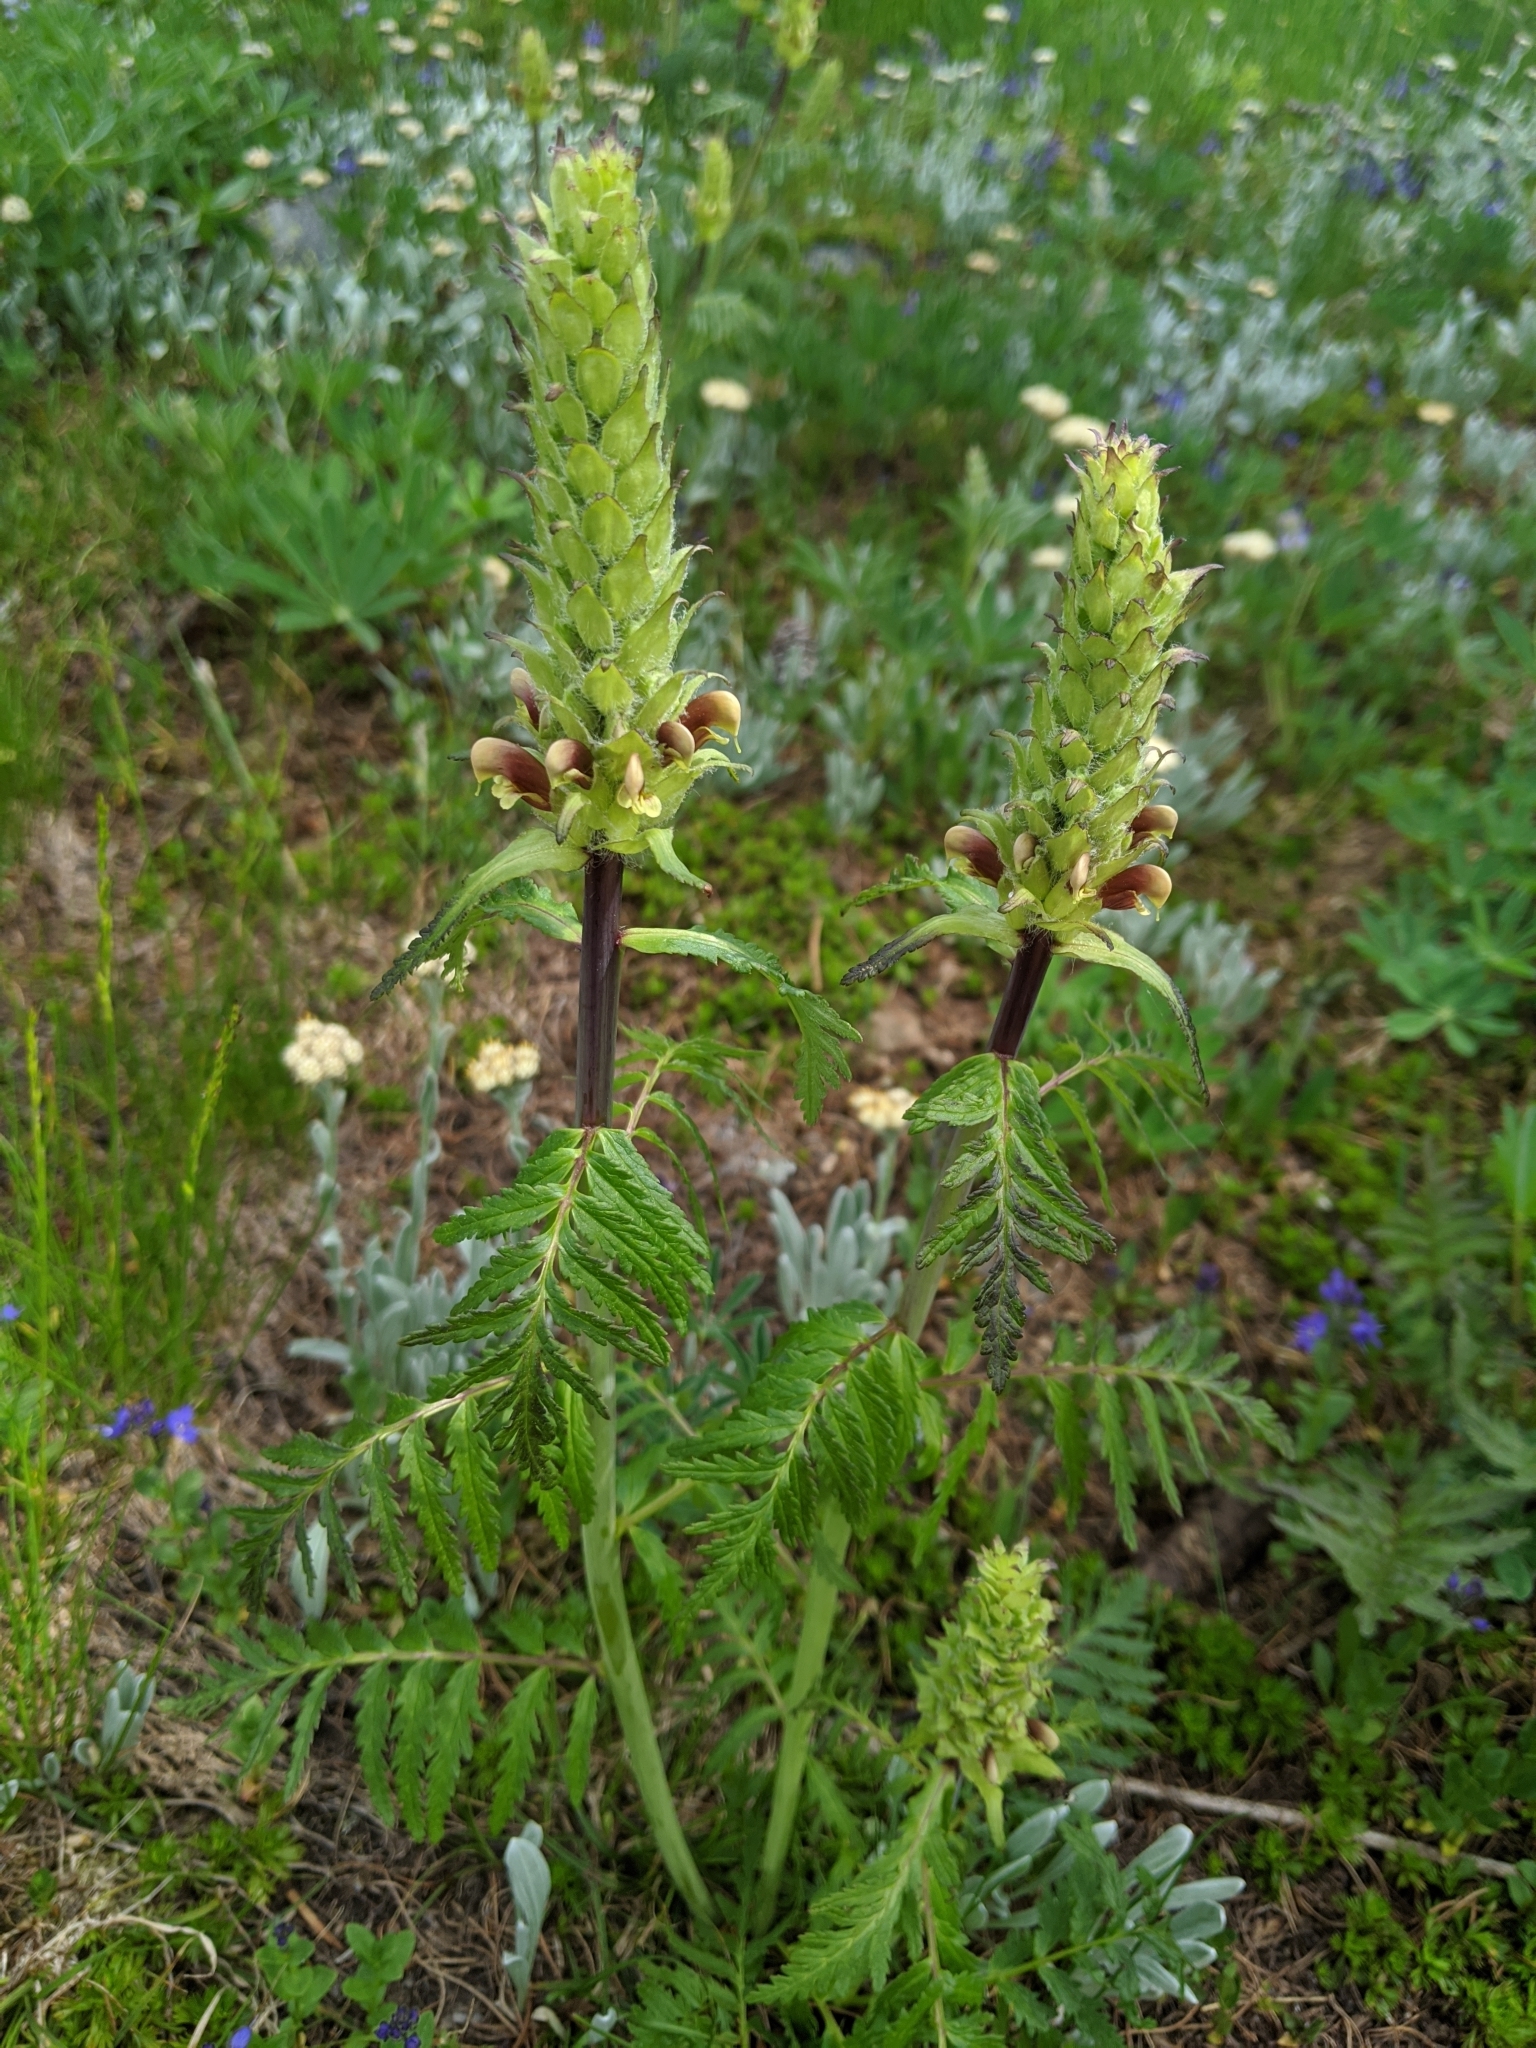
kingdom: Plantae
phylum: Tracheophyta
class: Magnoliopsida
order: Lamiales
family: Orobanchaceae
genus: Pedicularis
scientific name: Pedicularis bracteosa
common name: Bracted lousewort
